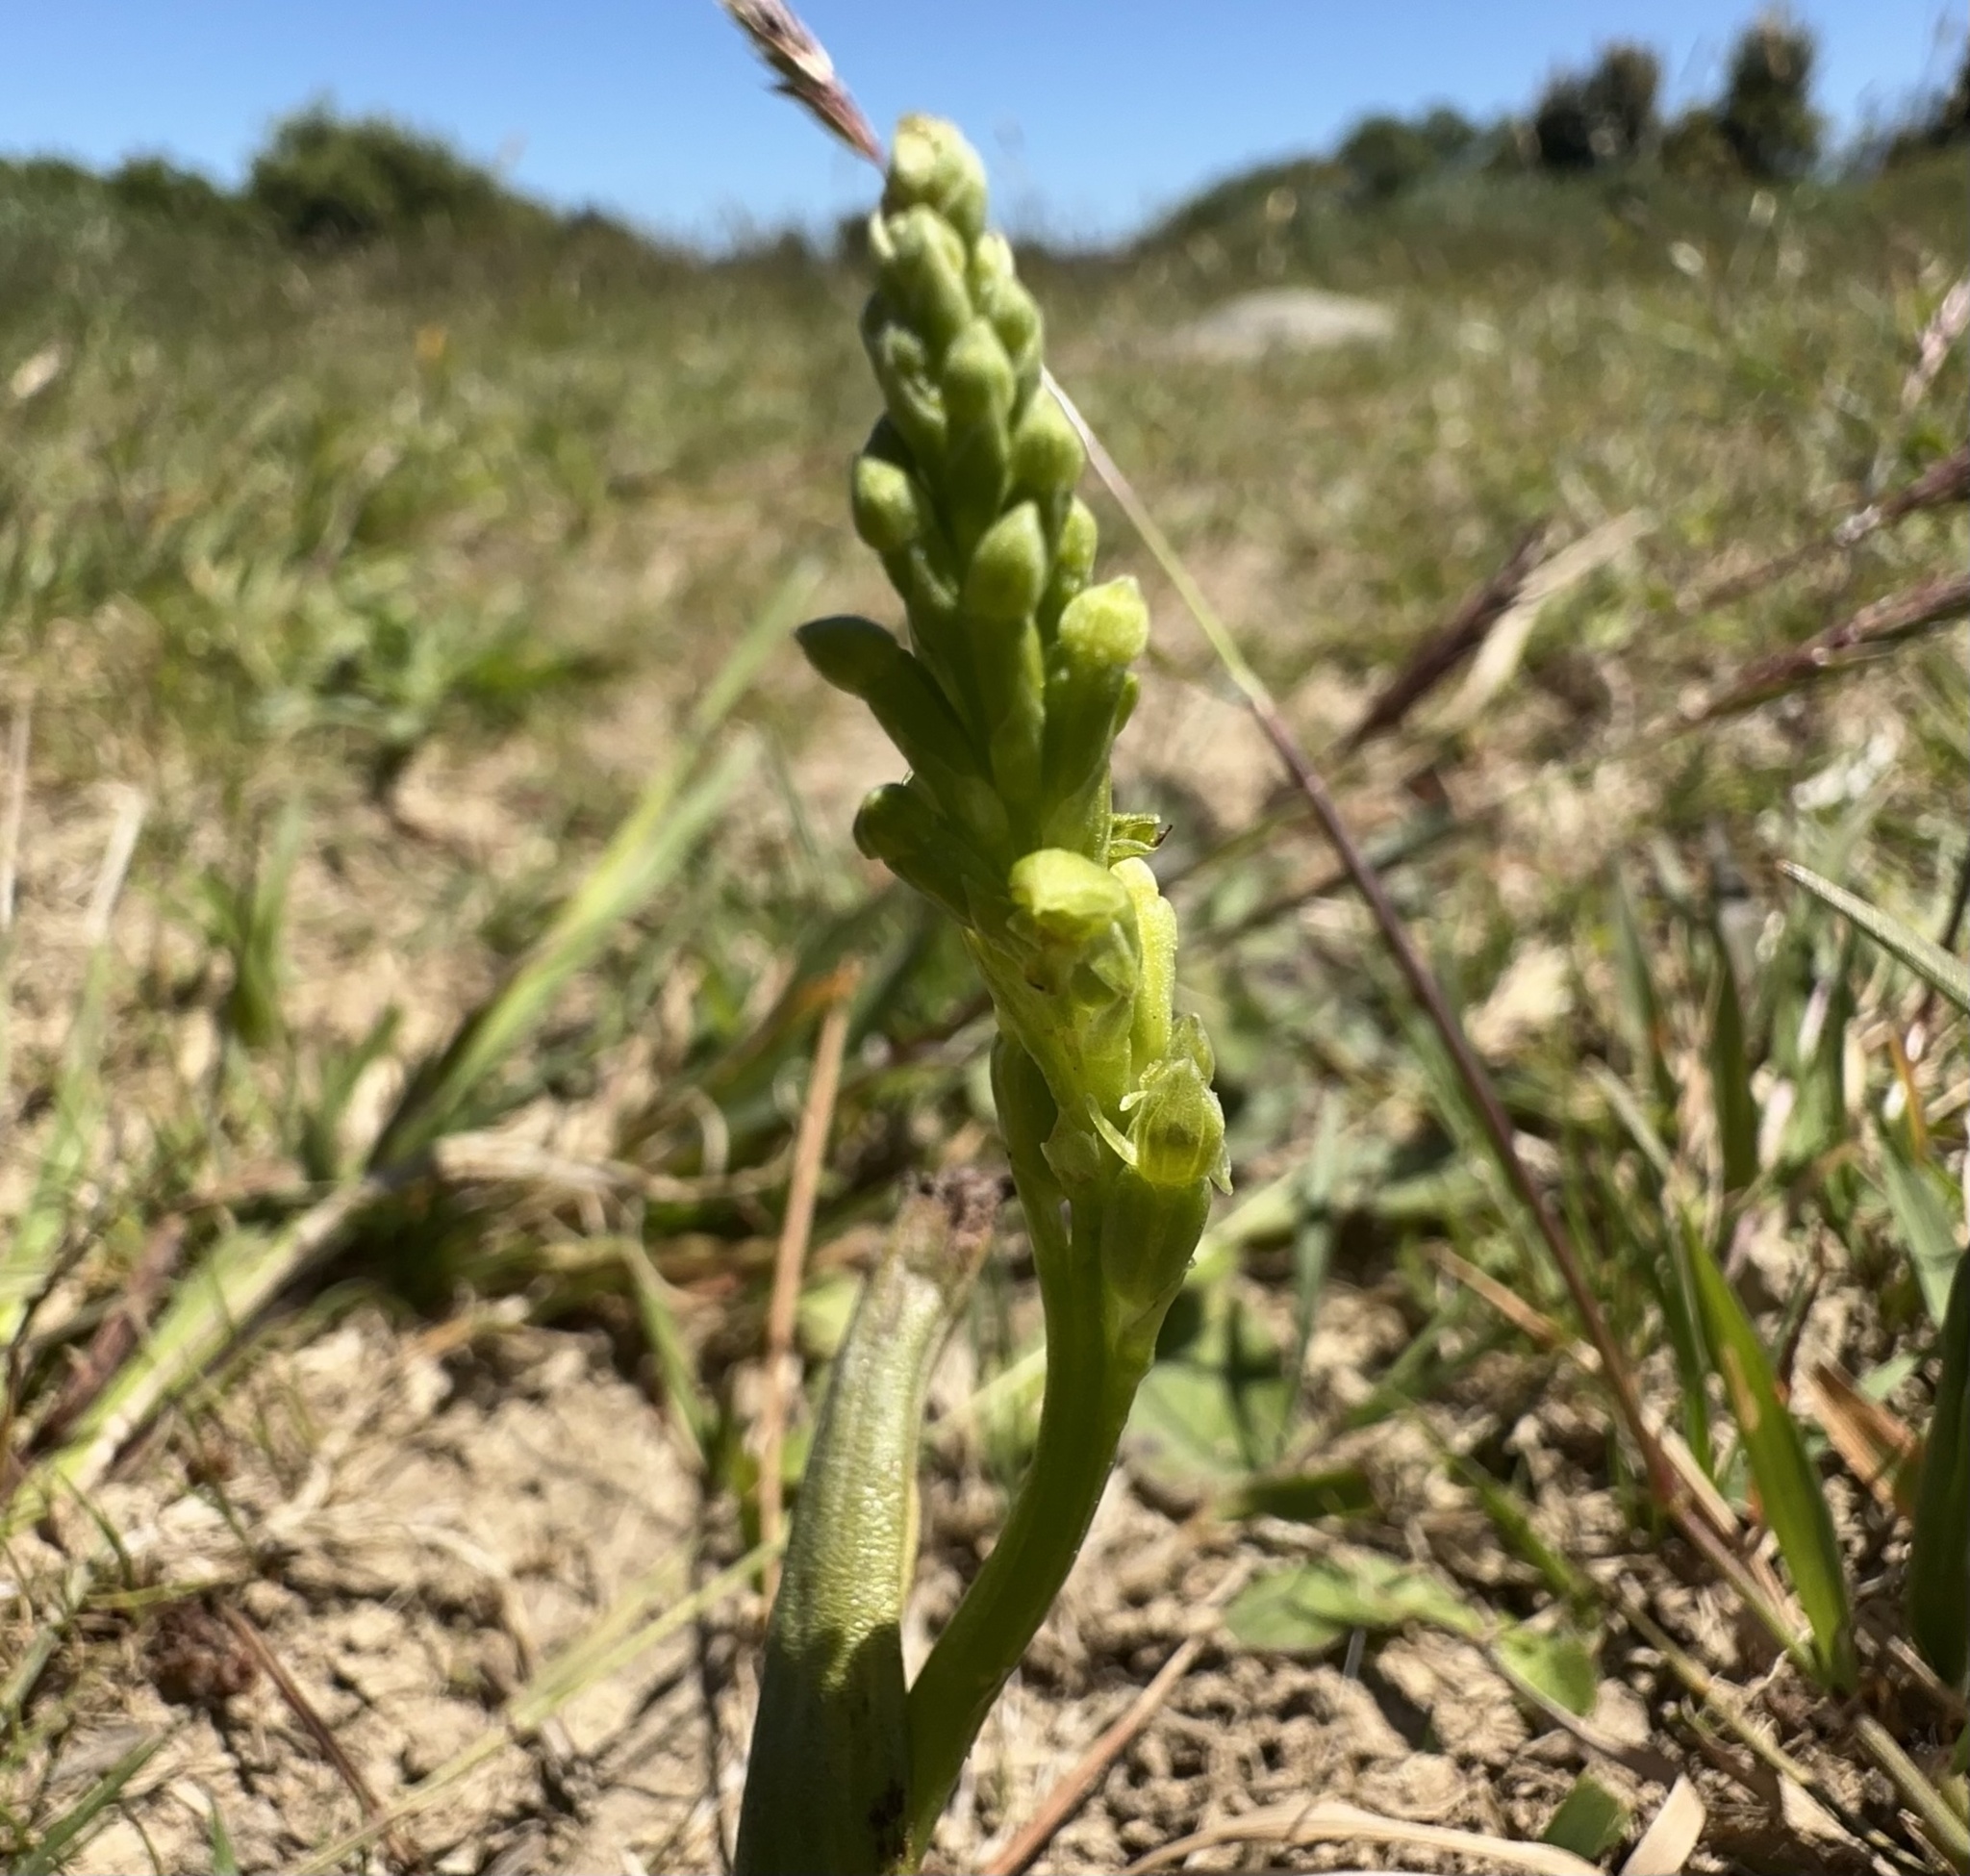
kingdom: Plantae
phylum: Tracheophyta
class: Liliopsida
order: Asparagales
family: Orchidaceae
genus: Microtis
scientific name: Microtis unifolia
